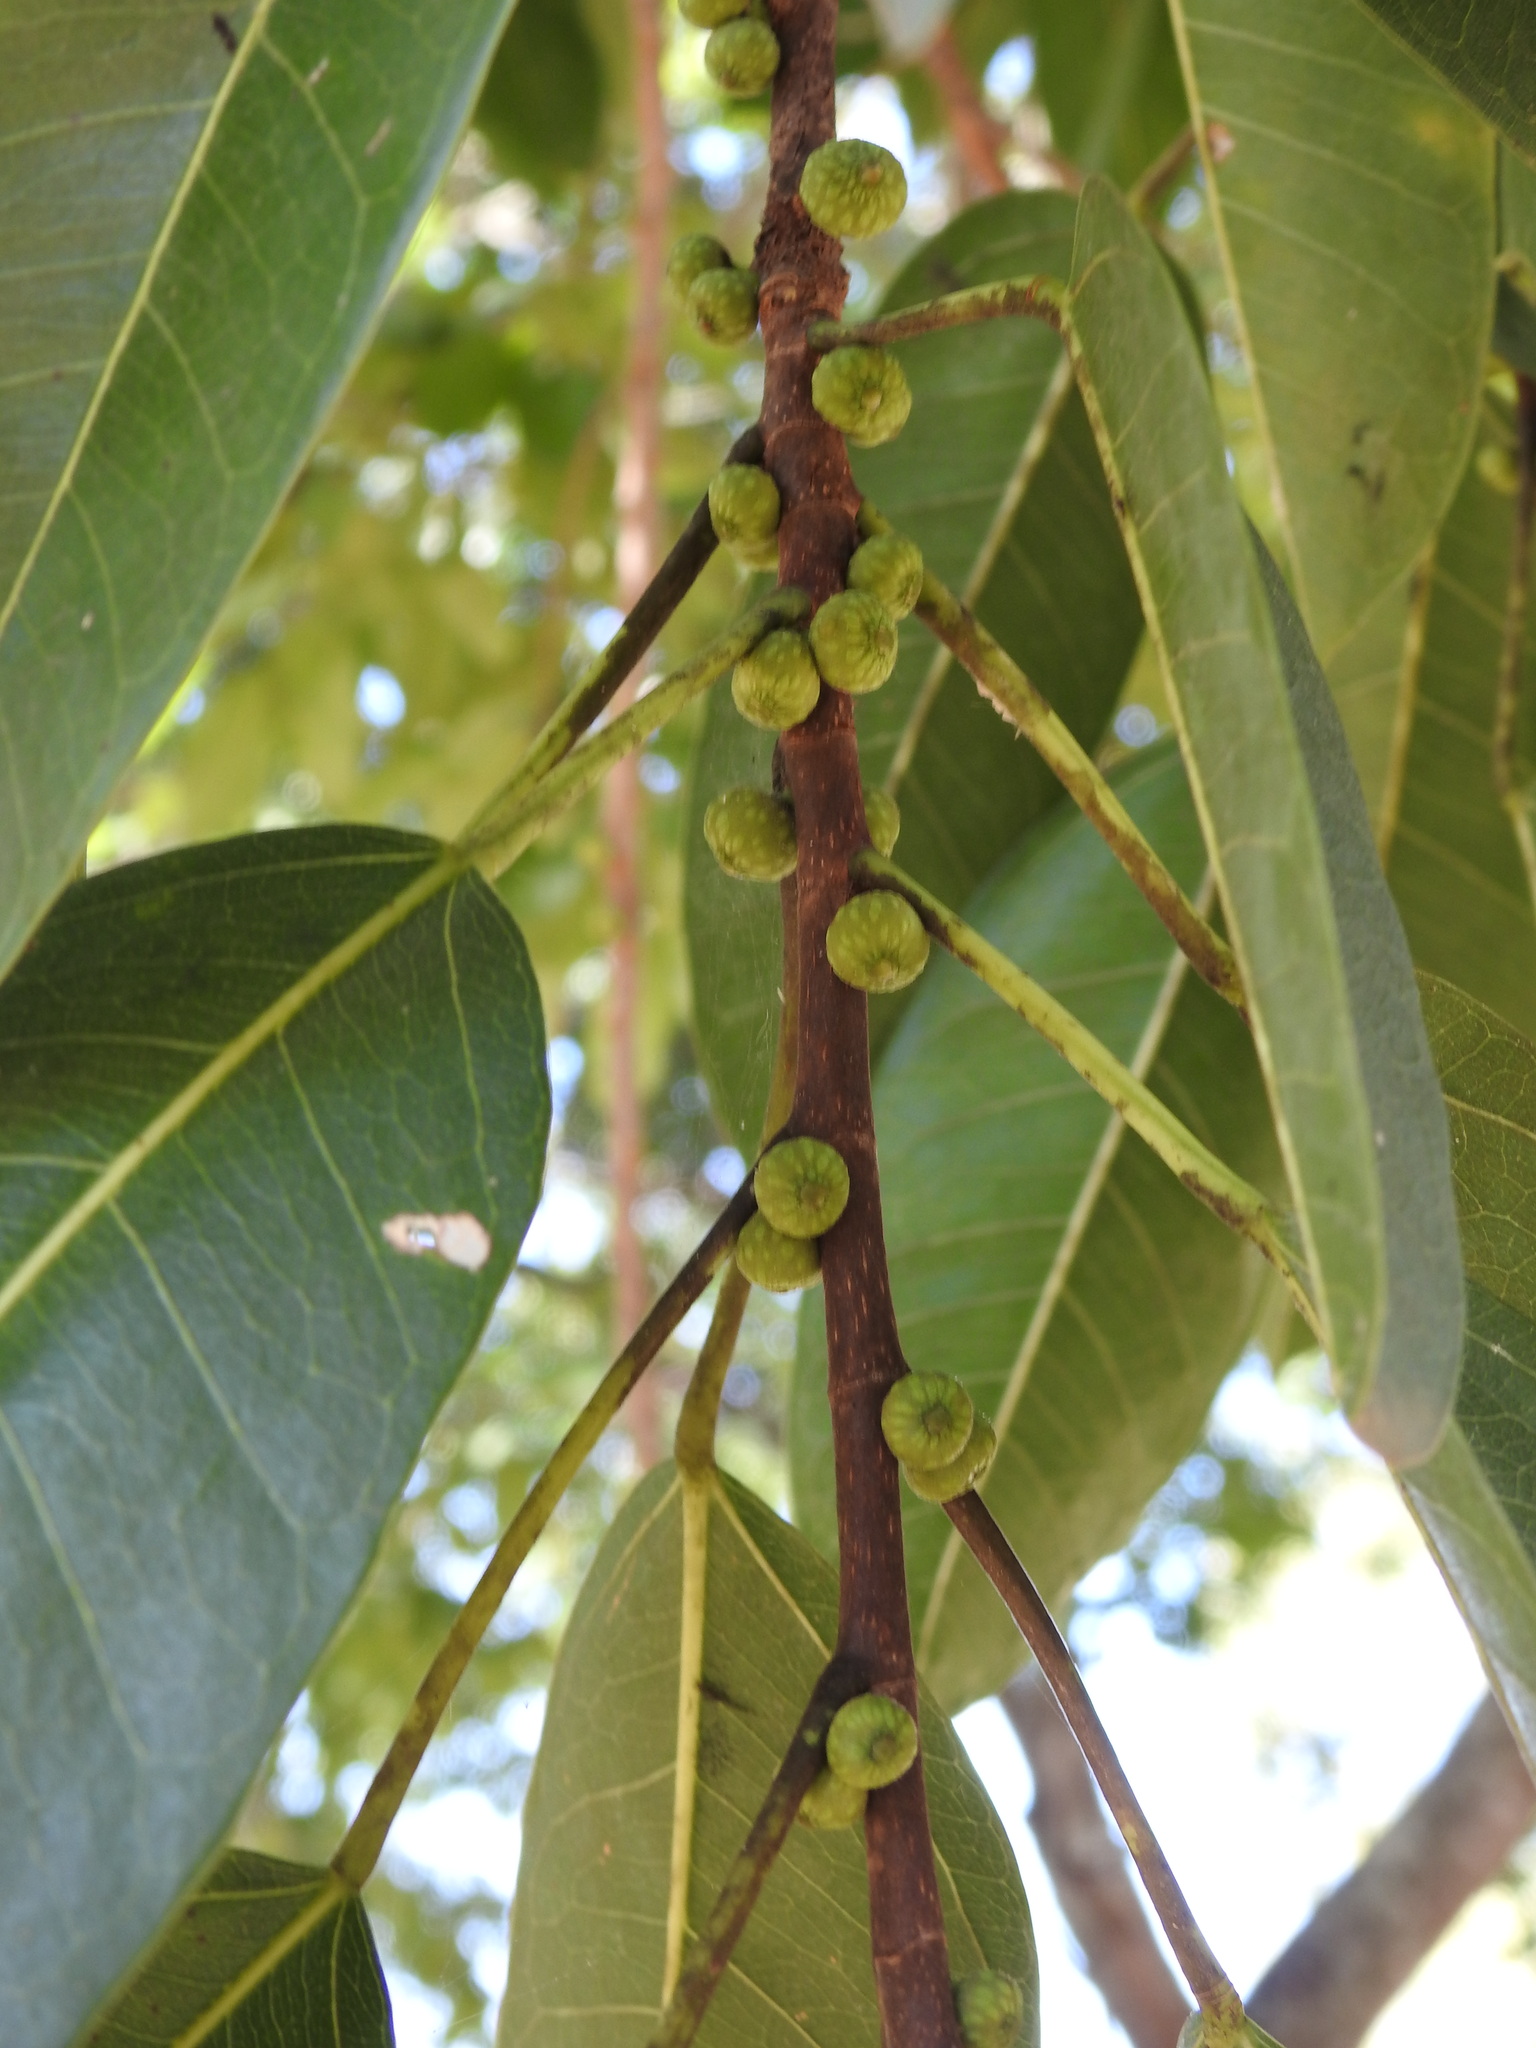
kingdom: Plantae
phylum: Tracheophyta
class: Magnoliopsida
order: Rosales
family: Moraceae
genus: Ficus
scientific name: Ficus salicifolia
